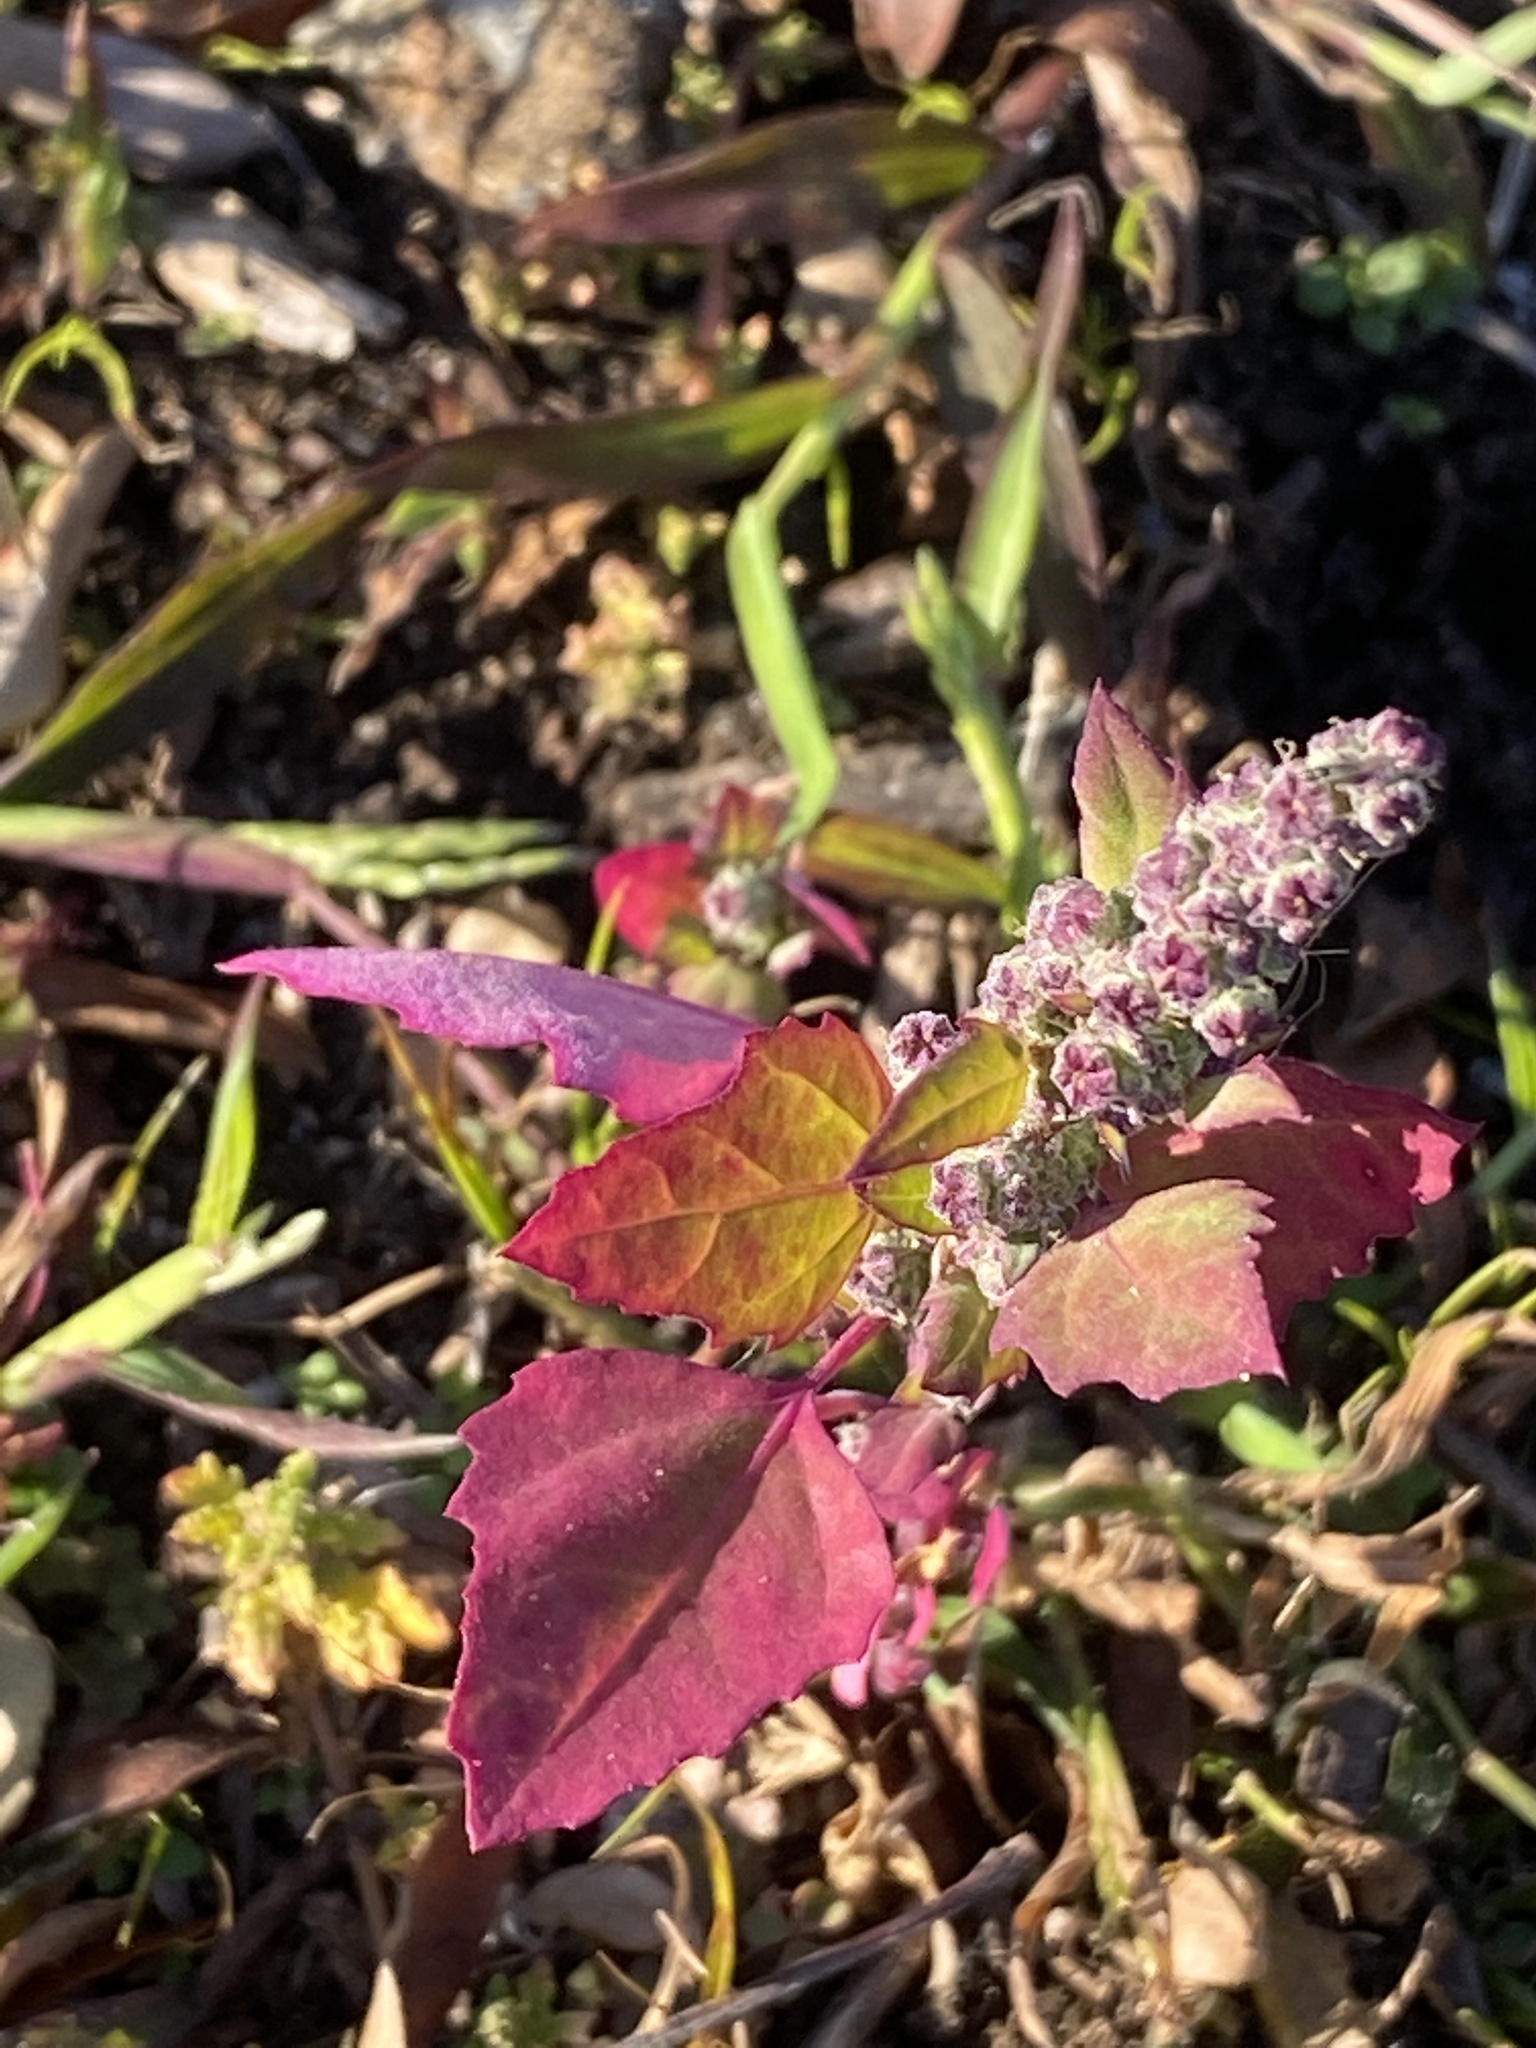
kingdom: Plantae
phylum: Tracheophyta
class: Magnoliopsida
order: Caryophyllales
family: Amaranthaceae
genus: Chenopodium
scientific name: Chenopodium album
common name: Fat-hen
